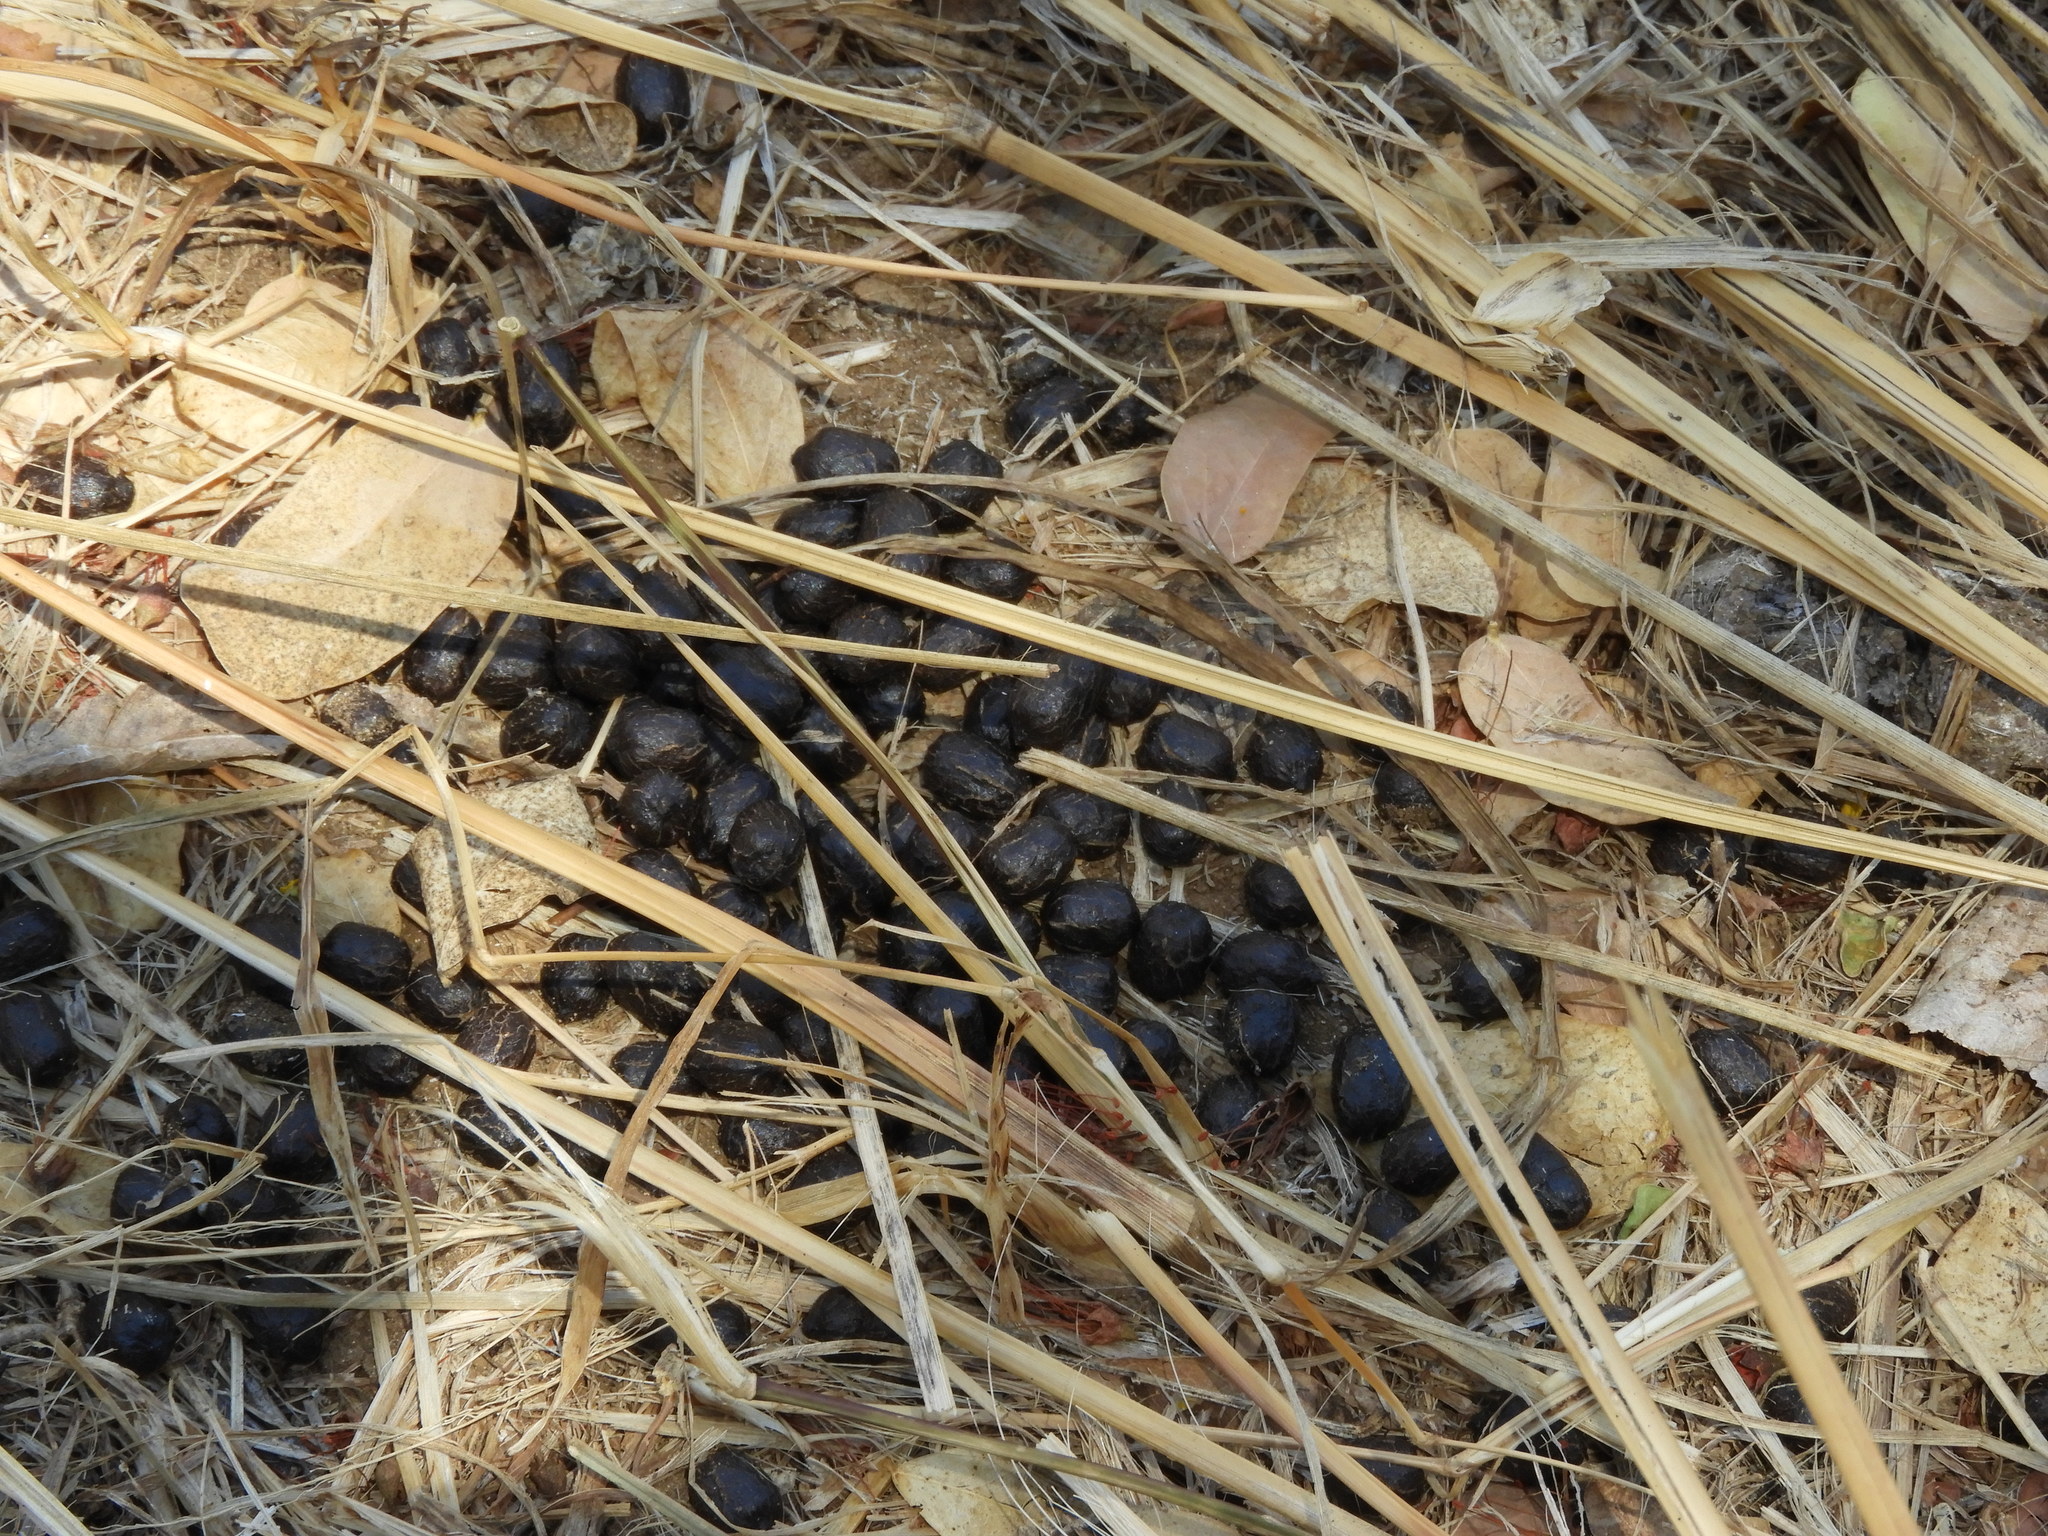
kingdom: Animalia
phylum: Chordata
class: Mammalia
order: Artiodactyla
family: Cervidae
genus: Odocoileus
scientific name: Odocoileus virginianus
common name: White-tailed deer
